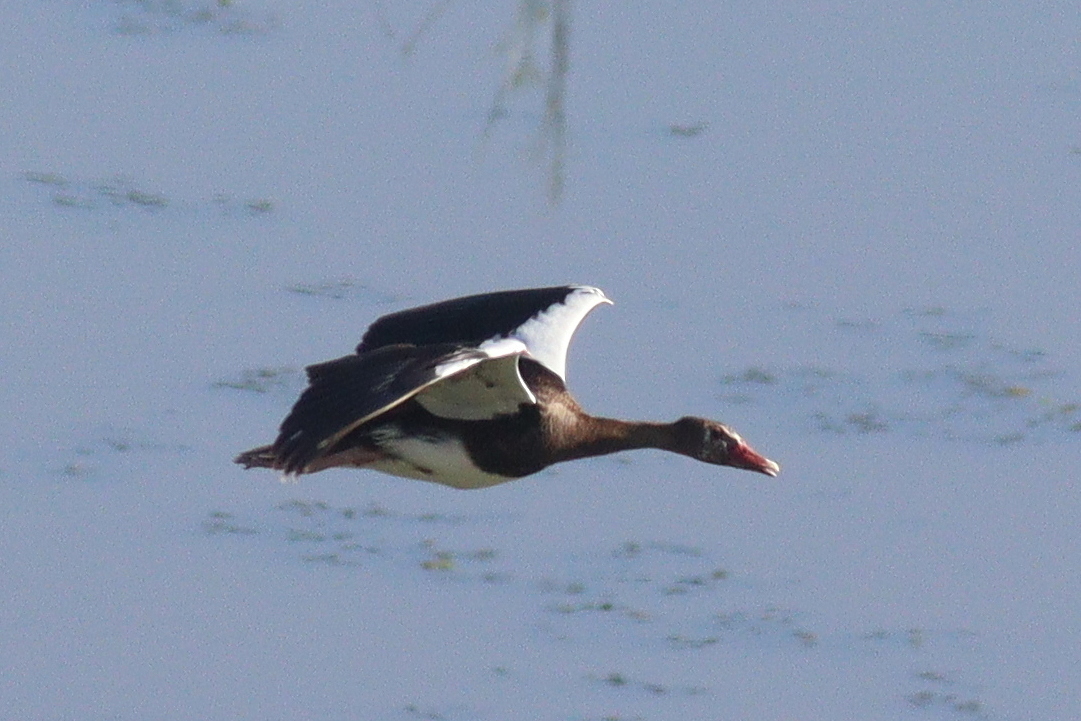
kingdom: Animalia
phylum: Chordata
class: Aves
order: Anseriformes
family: Anatidae
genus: Plectropterus
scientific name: Plectropterus gambensis
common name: Spur-winged goose
